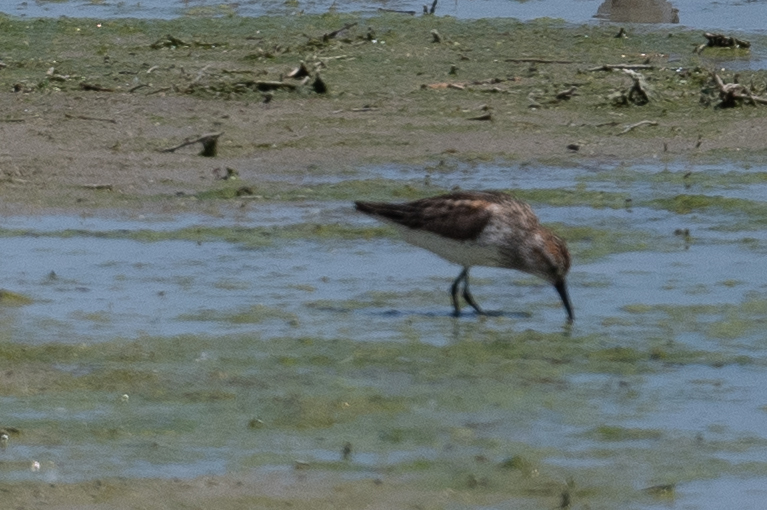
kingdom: Animalia
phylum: Chordata
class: Aves
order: Charadriiformes
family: Scolopacidae
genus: Calidris
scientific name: Calidris mauri
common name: Western sandpiper
